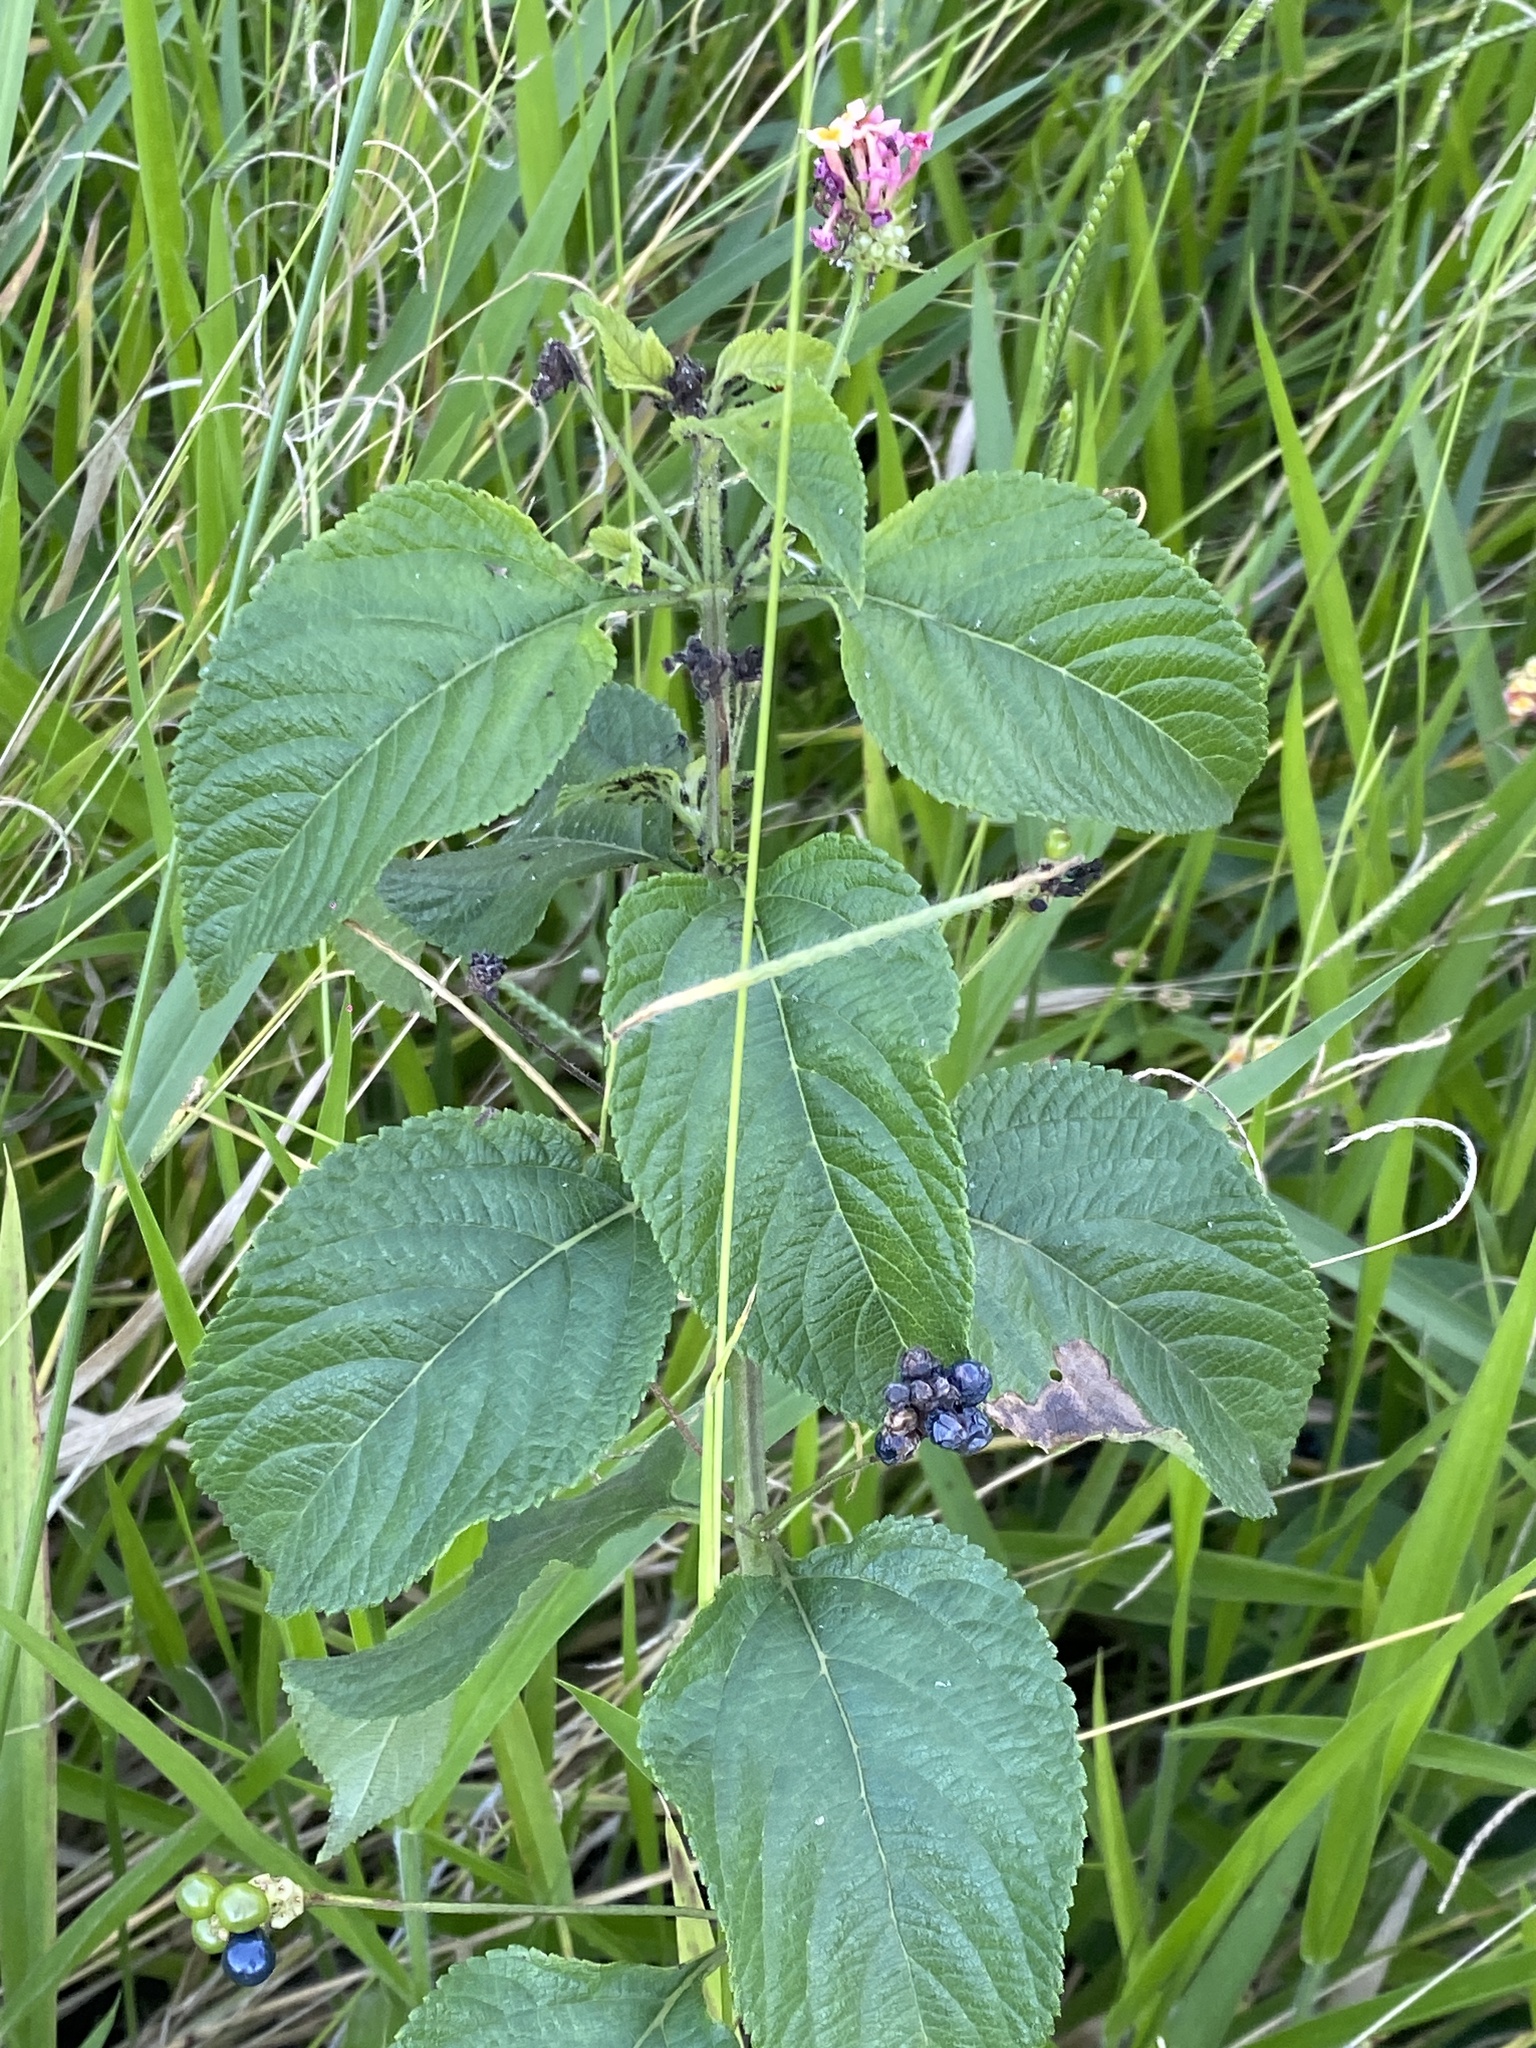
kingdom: Plantae
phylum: Tracheophyta
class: Magnoliopsida
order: Lamiales
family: Verbenaceae
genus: Lantana
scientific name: Lantana camara
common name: Lantana
